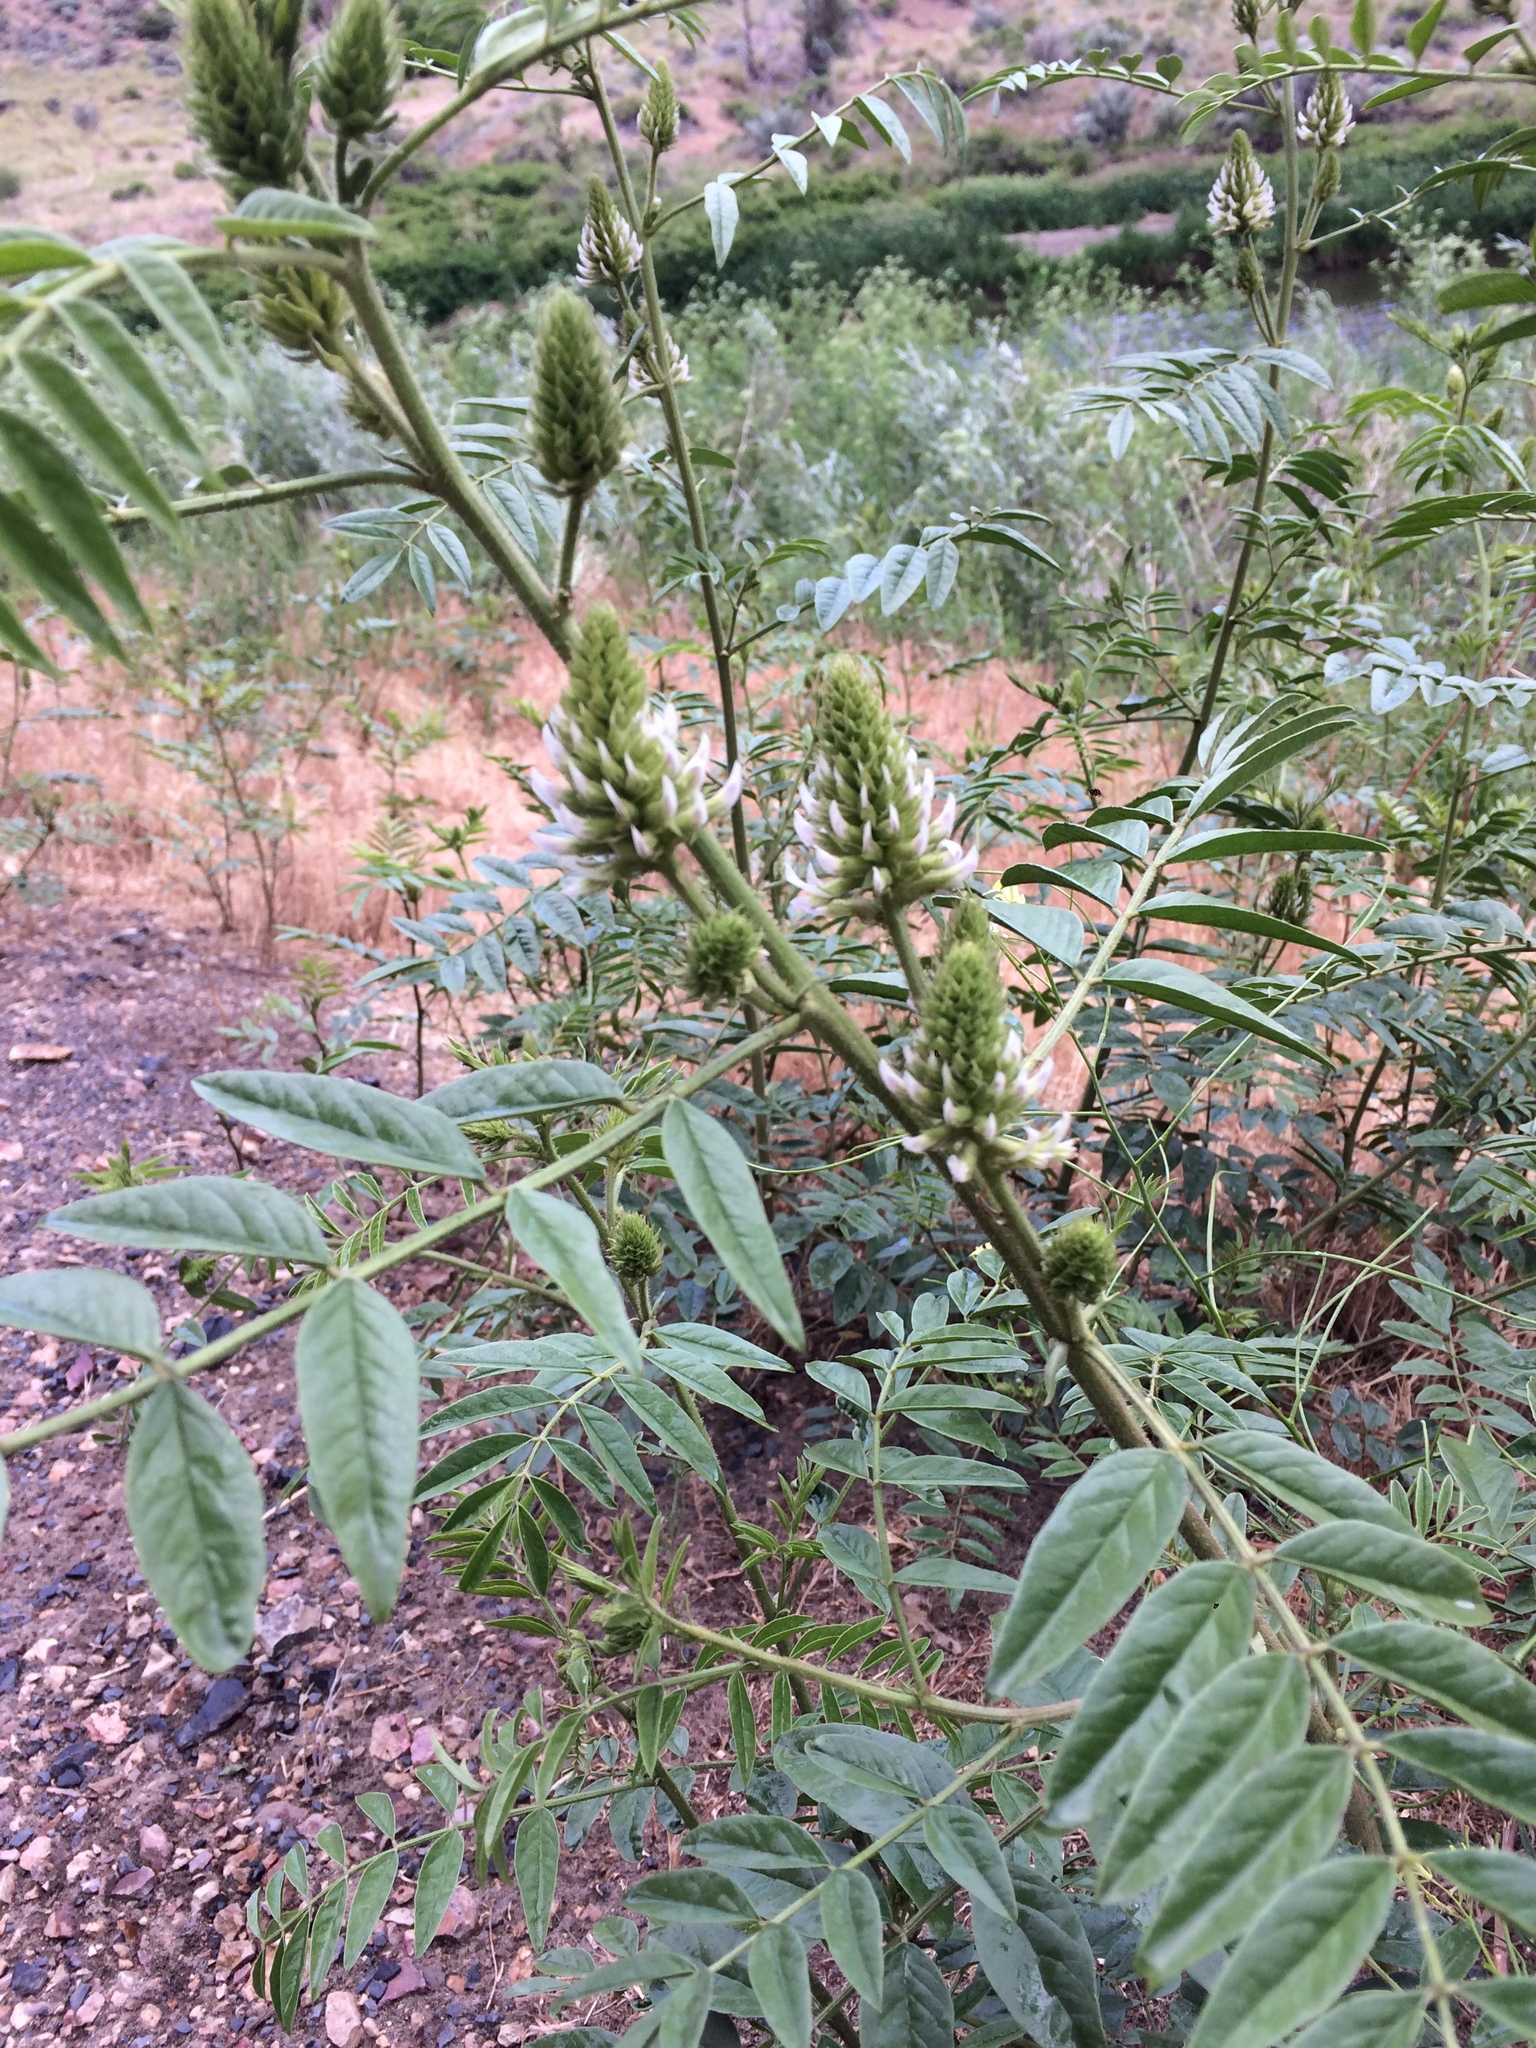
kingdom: Plantae
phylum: Tracheophyta
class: Magnoliopsida
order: Fabales
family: Fabaceae
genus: Glycyrrhiza
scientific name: Glycyrrhiza lepidota
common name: American liquorice
